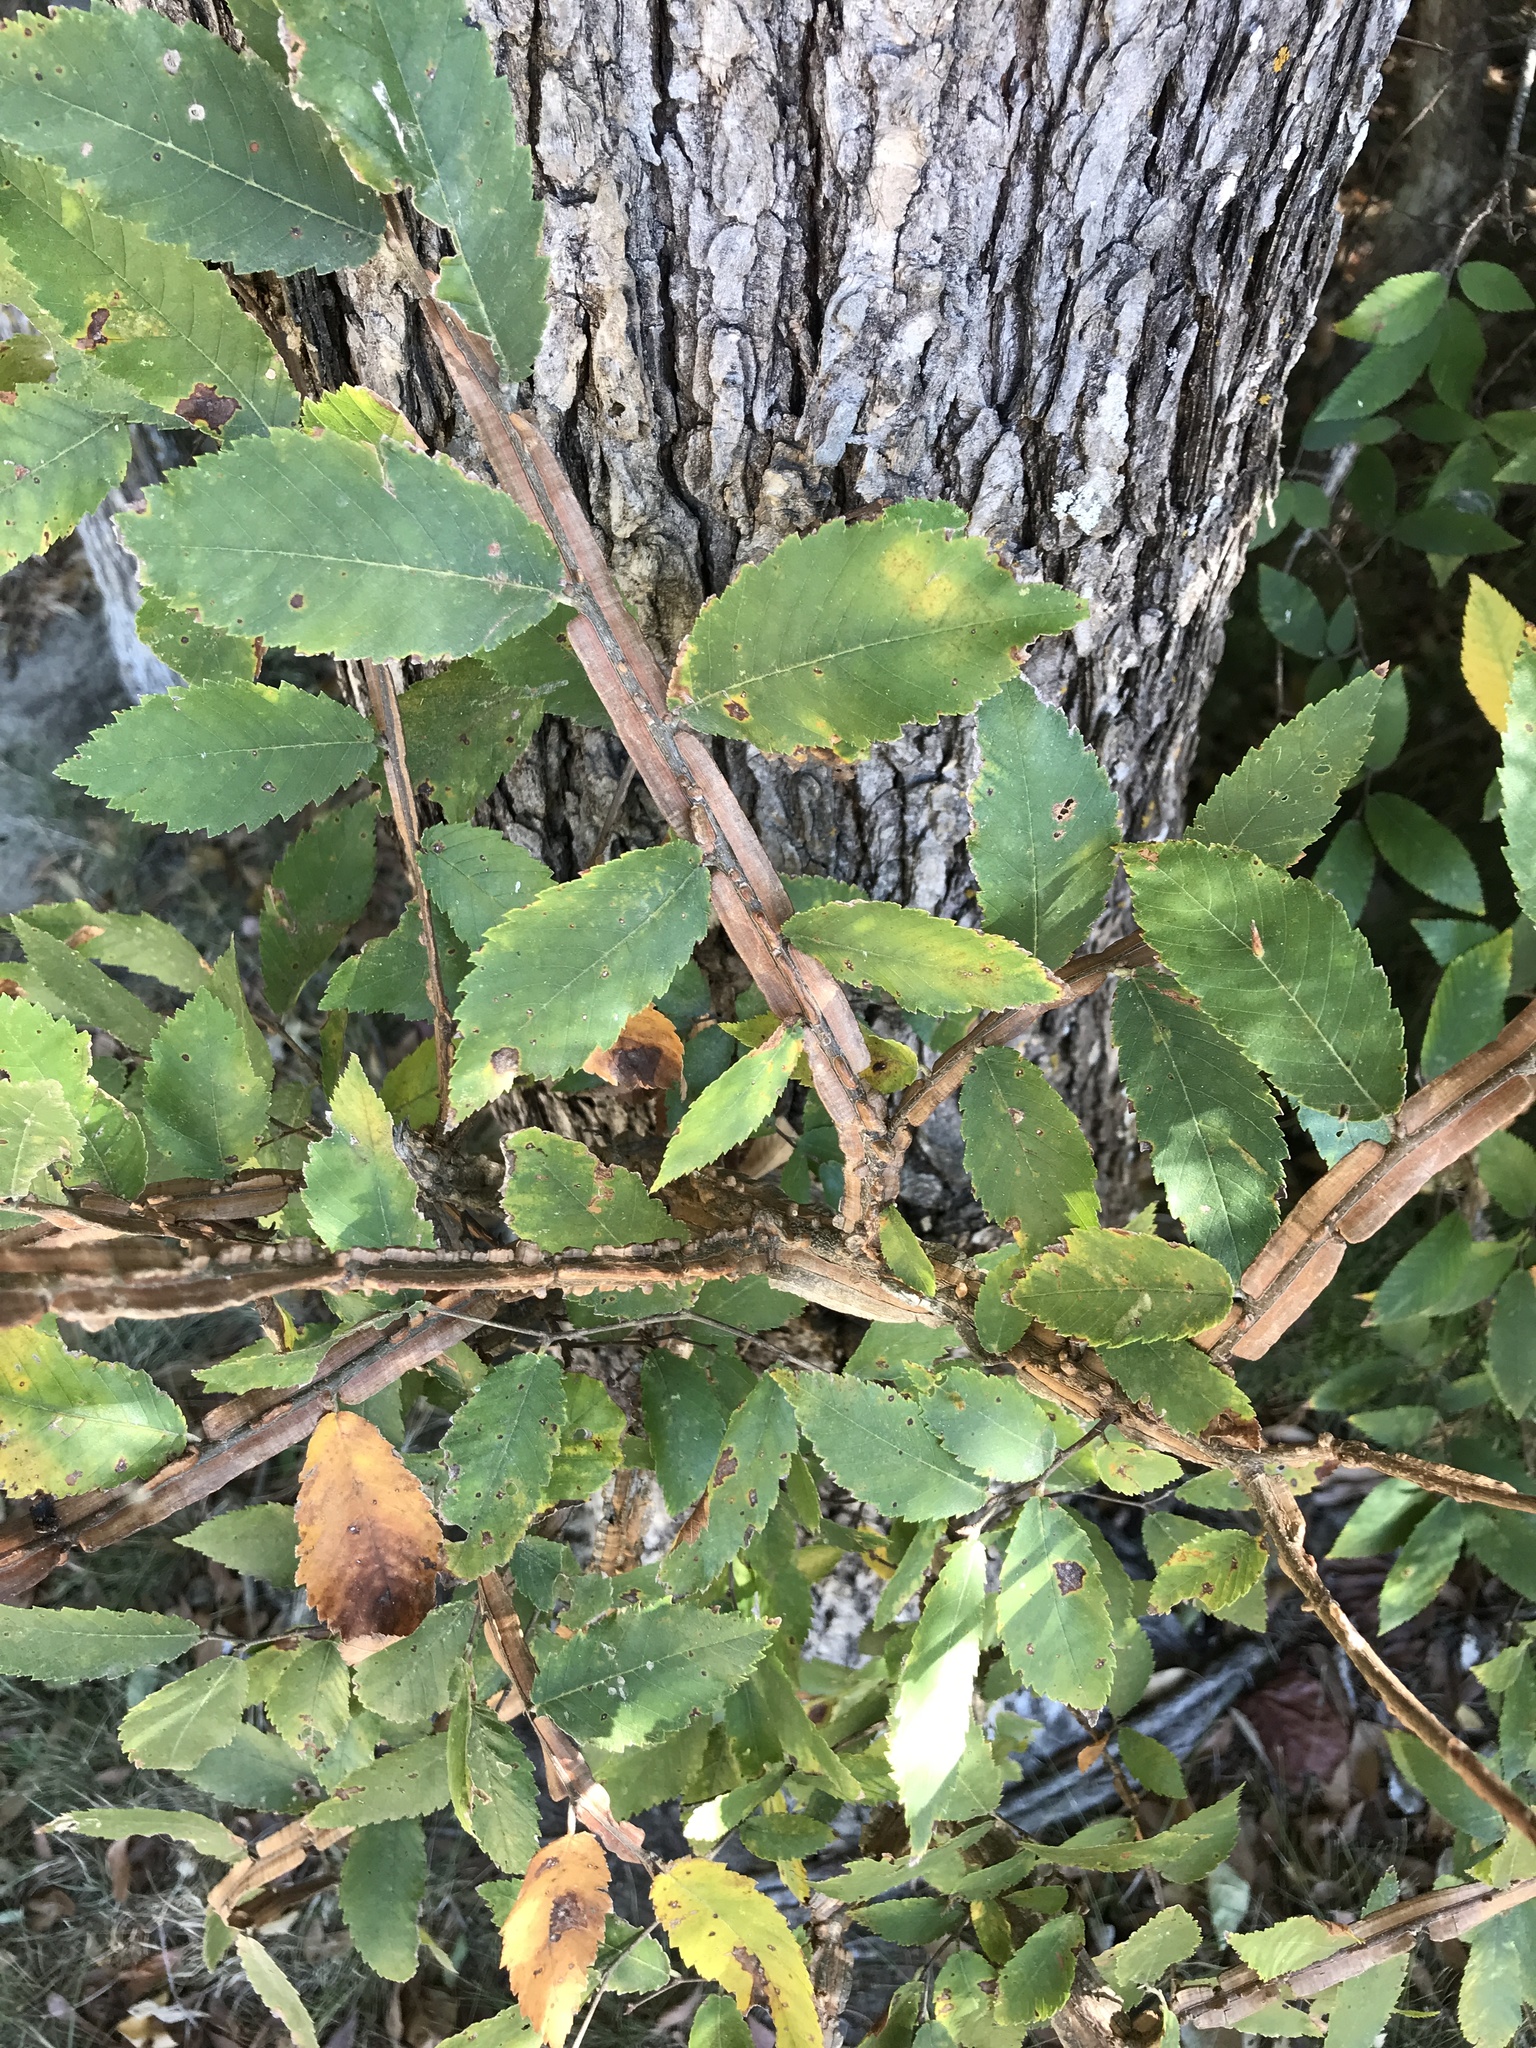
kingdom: Plantae
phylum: Tracheophyta
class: Magnoliopsida
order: Rosales
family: Ulmaceae
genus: Ulmus
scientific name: Ulmus alata
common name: Winged elm
